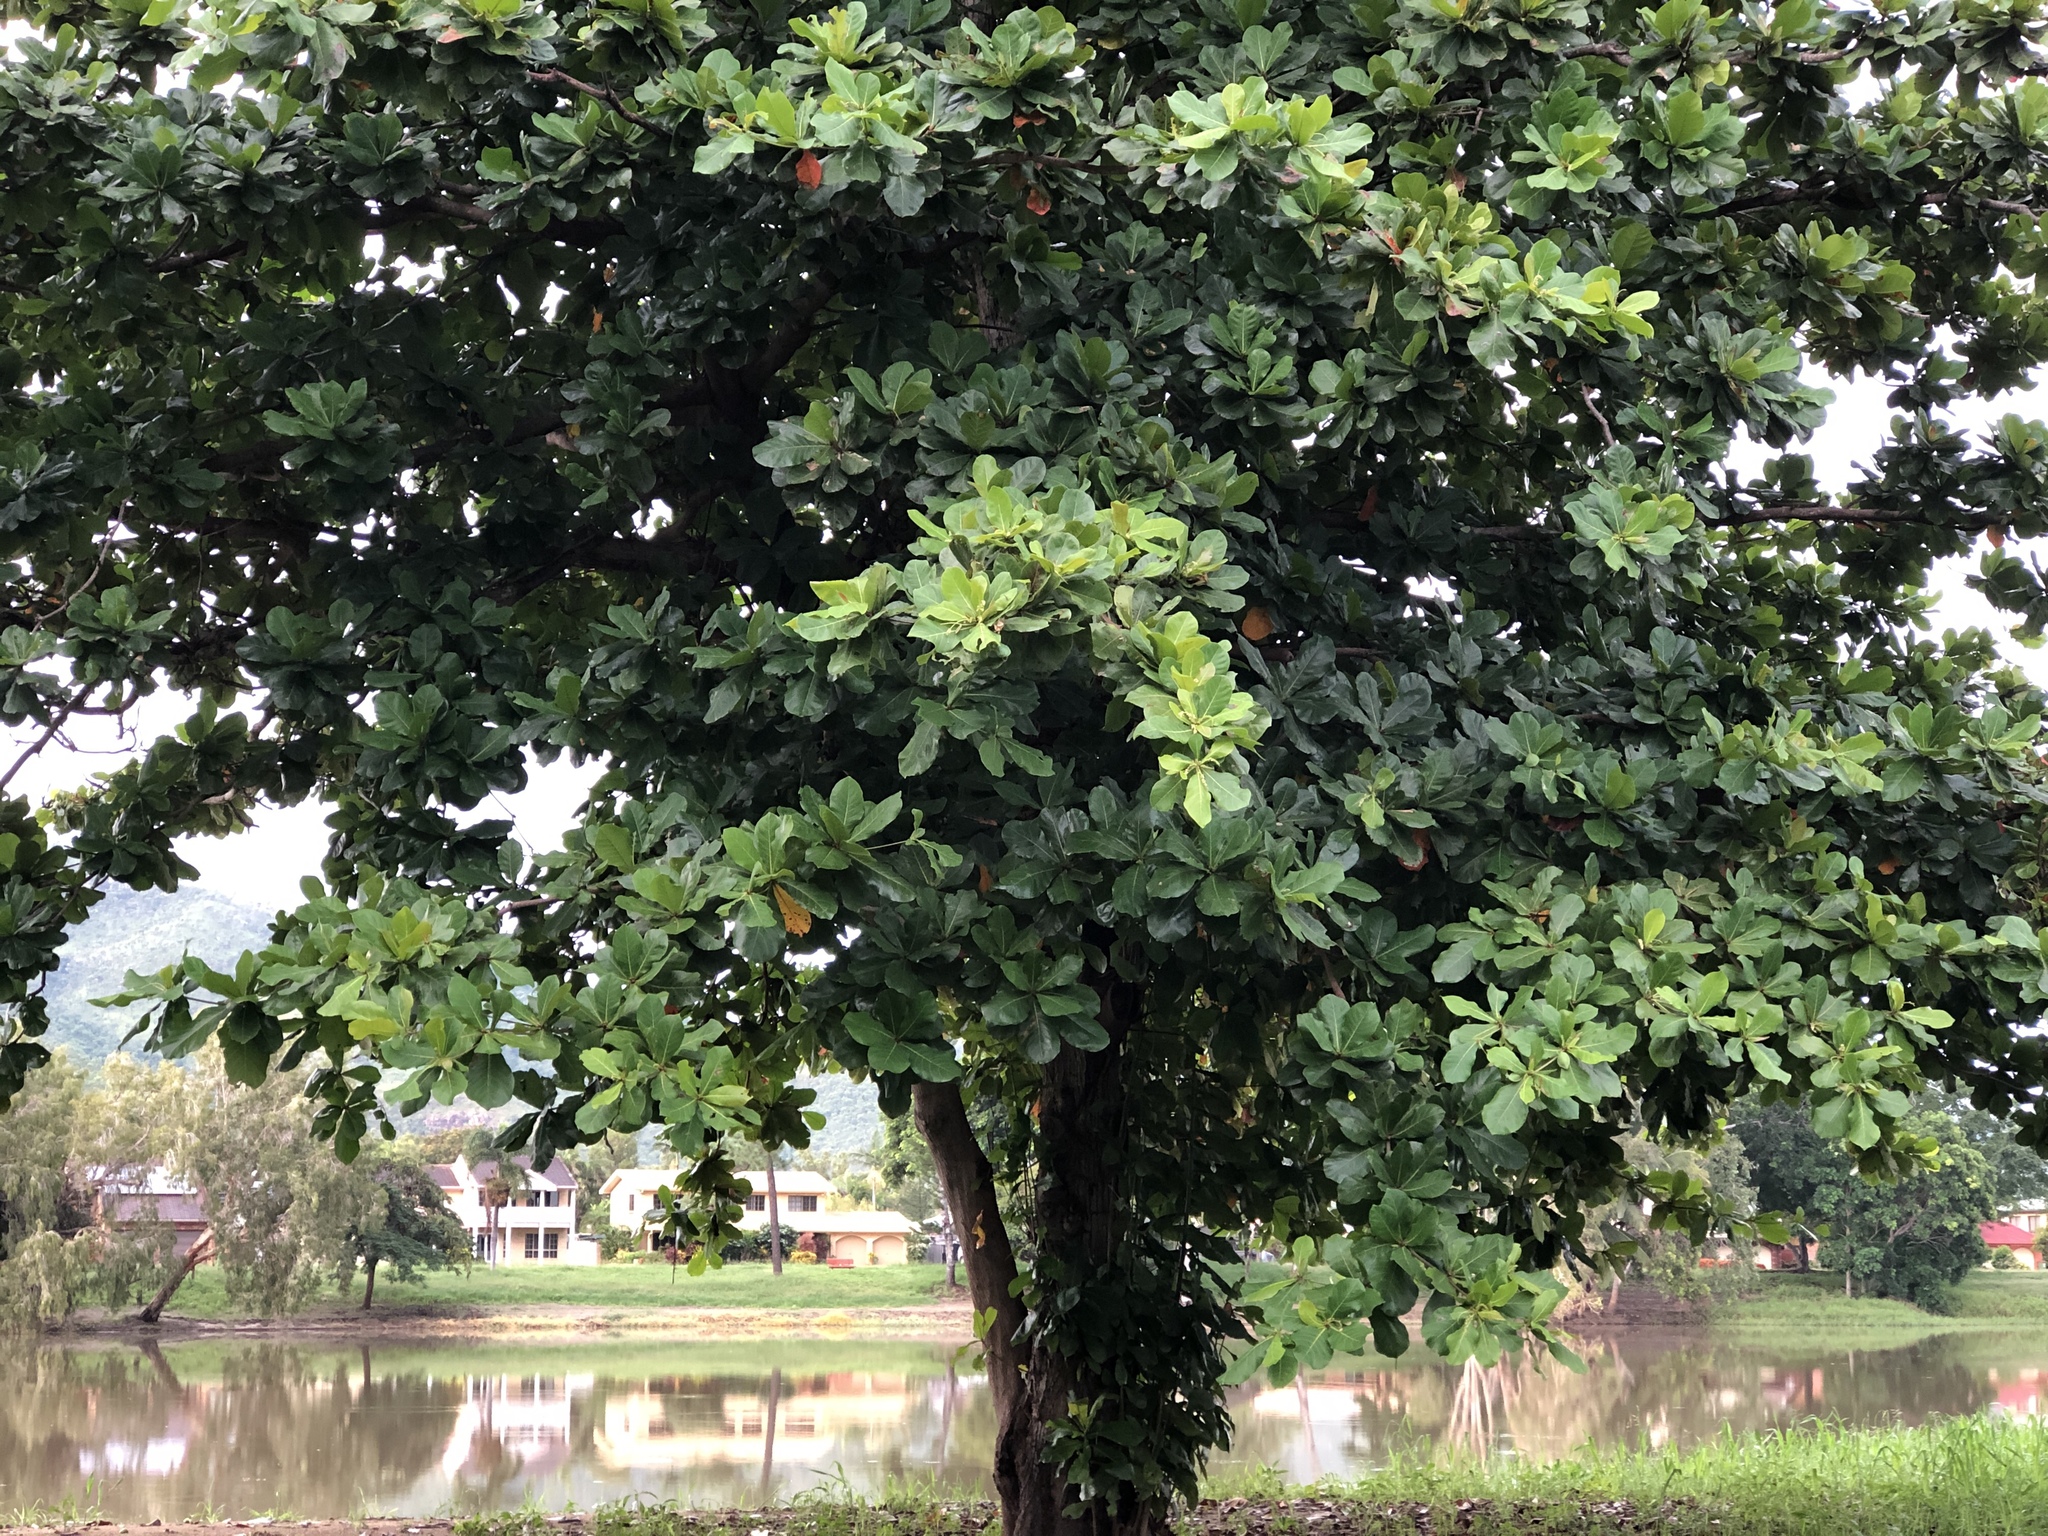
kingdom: Plantae
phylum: Tracheophyta
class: Magnoliopsida
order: Myrtales
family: Combretaceae
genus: Terminalia
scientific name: Terminalia catappa
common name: Tropical almond
